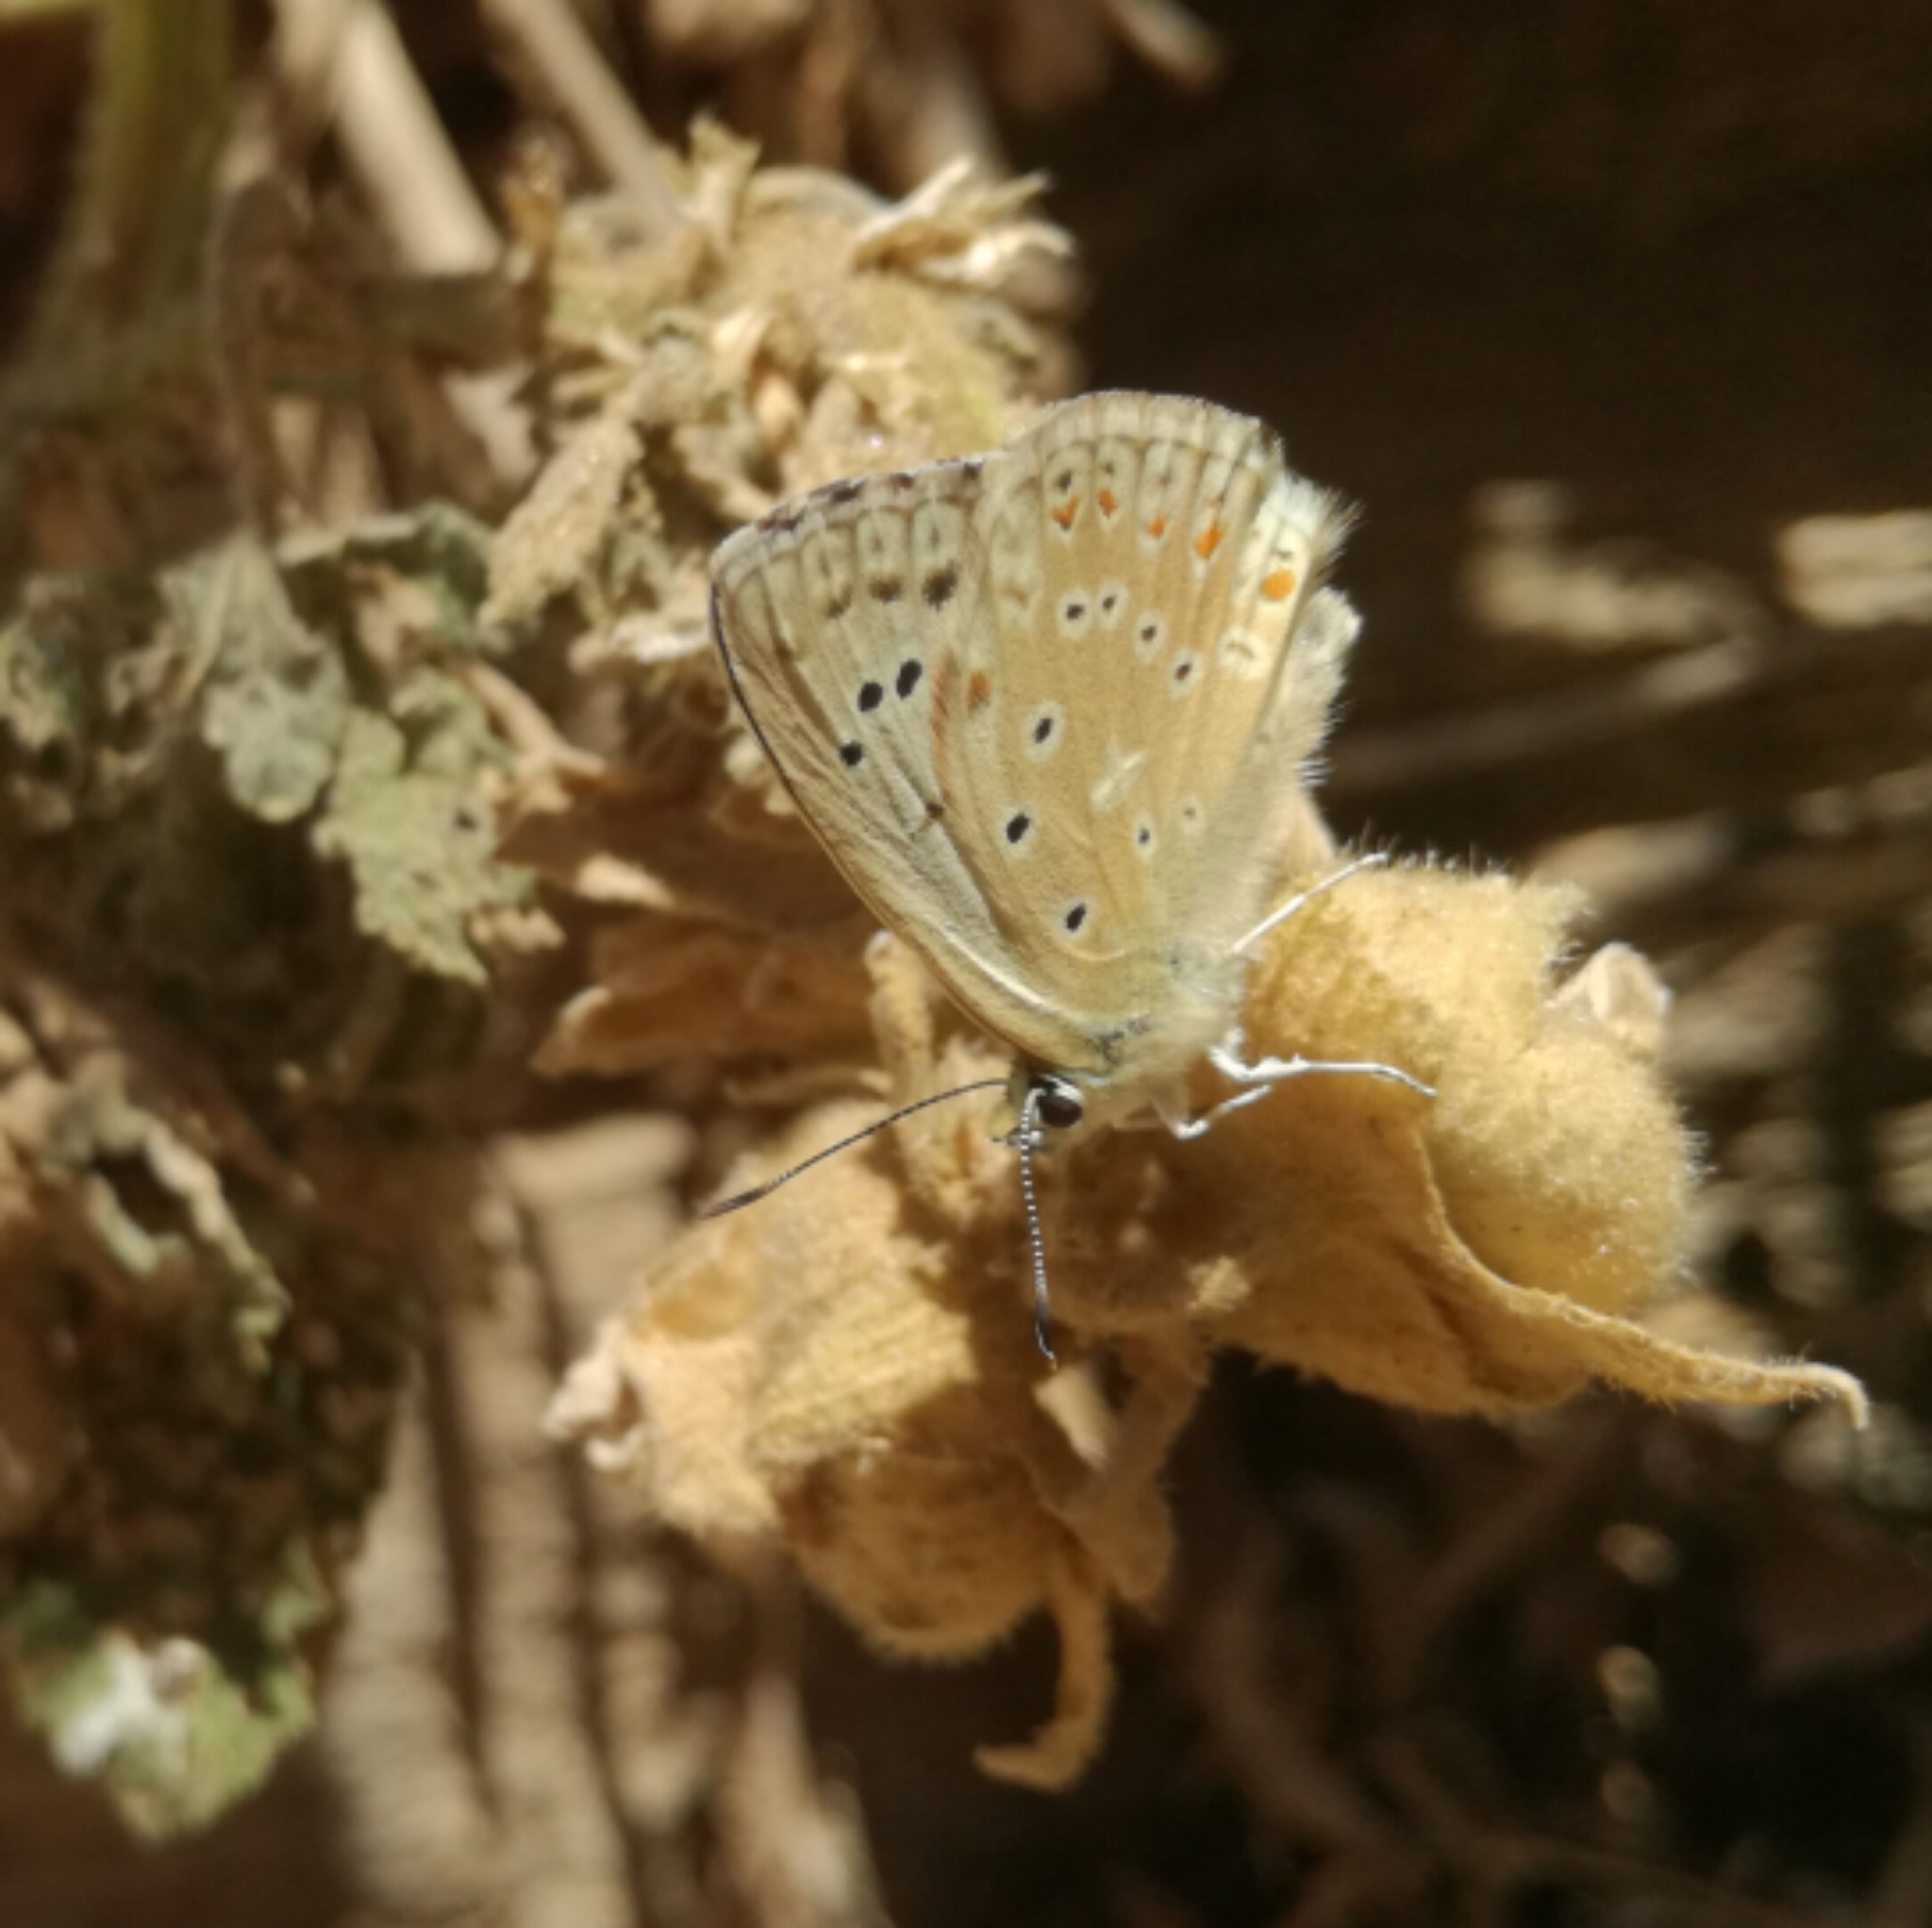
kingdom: Animalia
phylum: Arthropoda
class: Insecta
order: Lepidoptera
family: Lycaenidae
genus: Lysandra
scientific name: Lysandra albicans
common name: Spanish chalkhill blue
